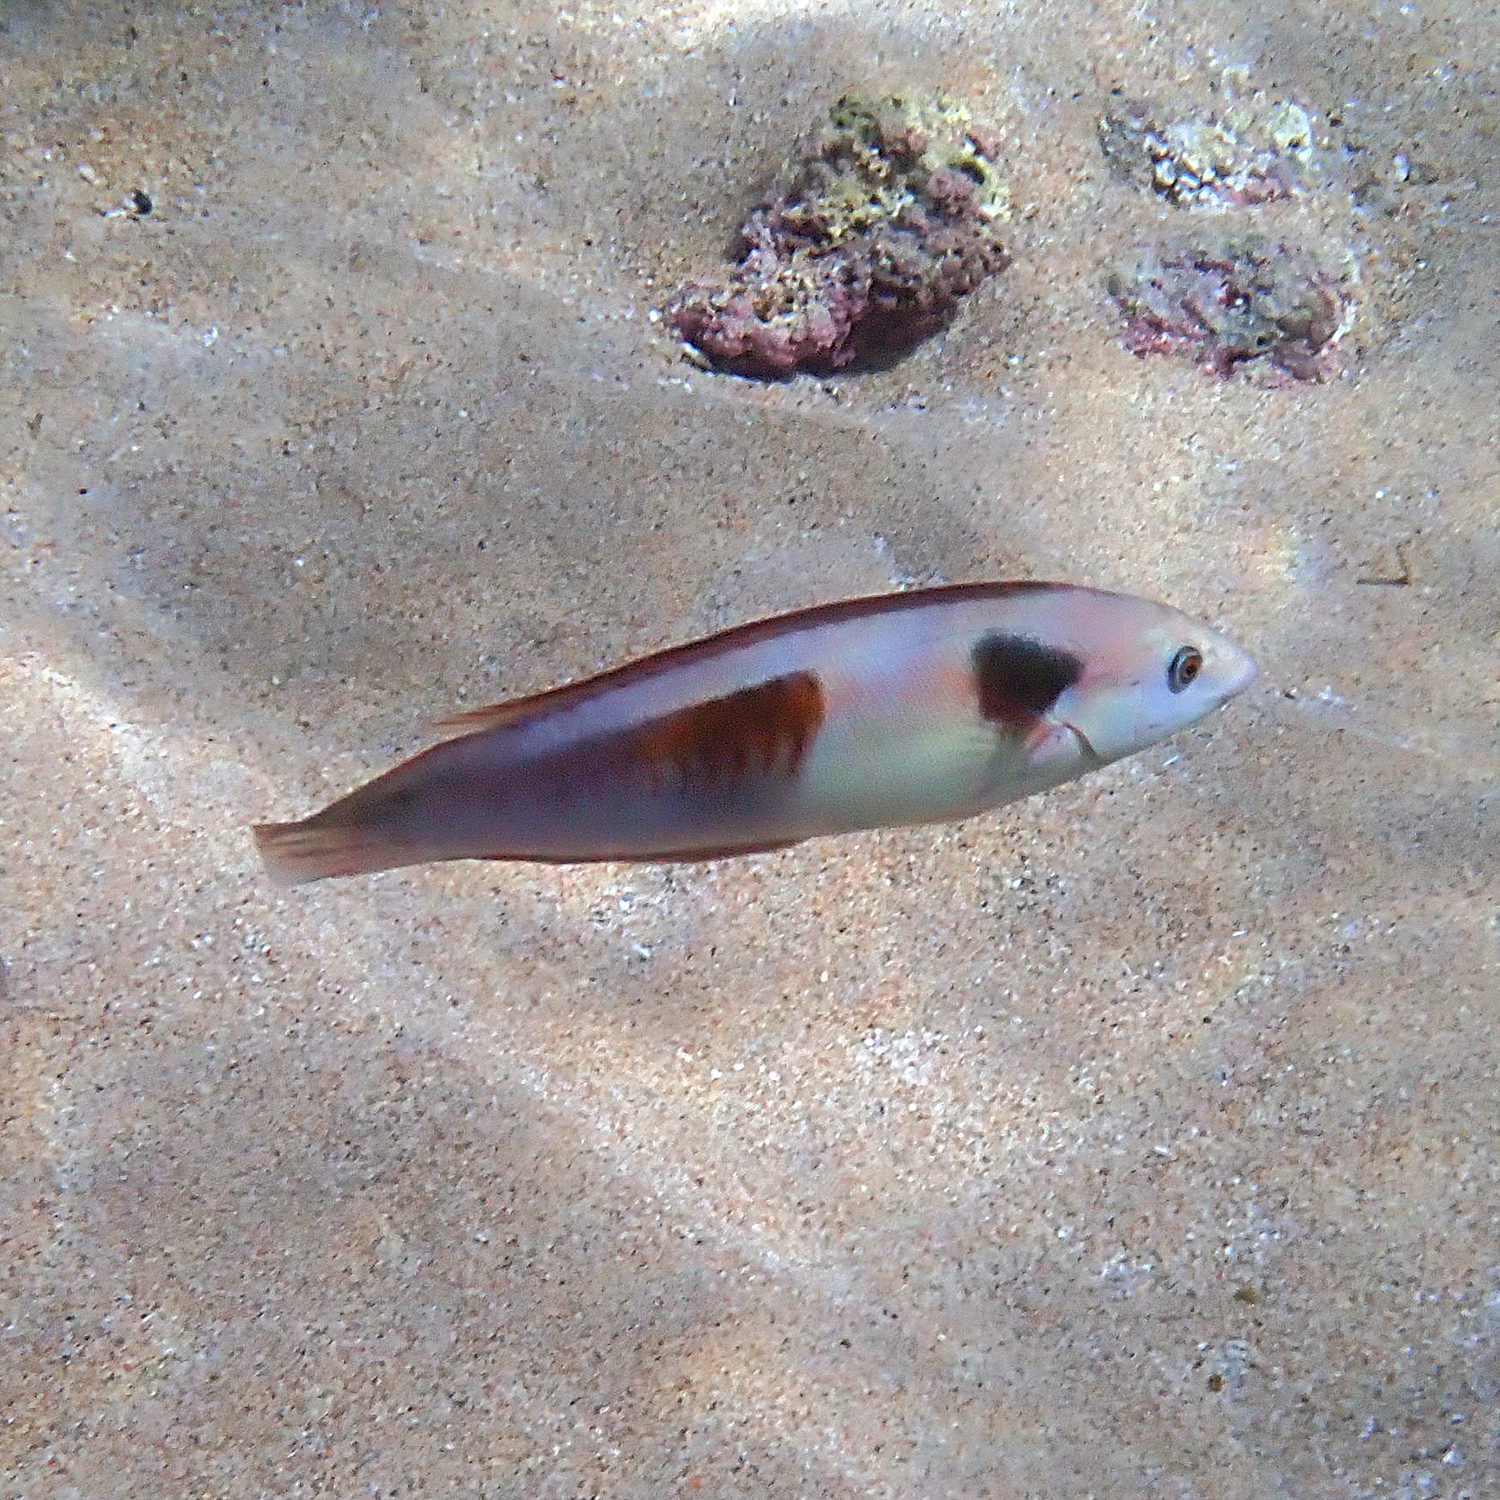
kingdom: Animalia
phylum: Chordata
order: Perciformes
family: Labridae
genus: Coris
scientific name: Coris sandeyeri
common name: Sandager's wrasse
